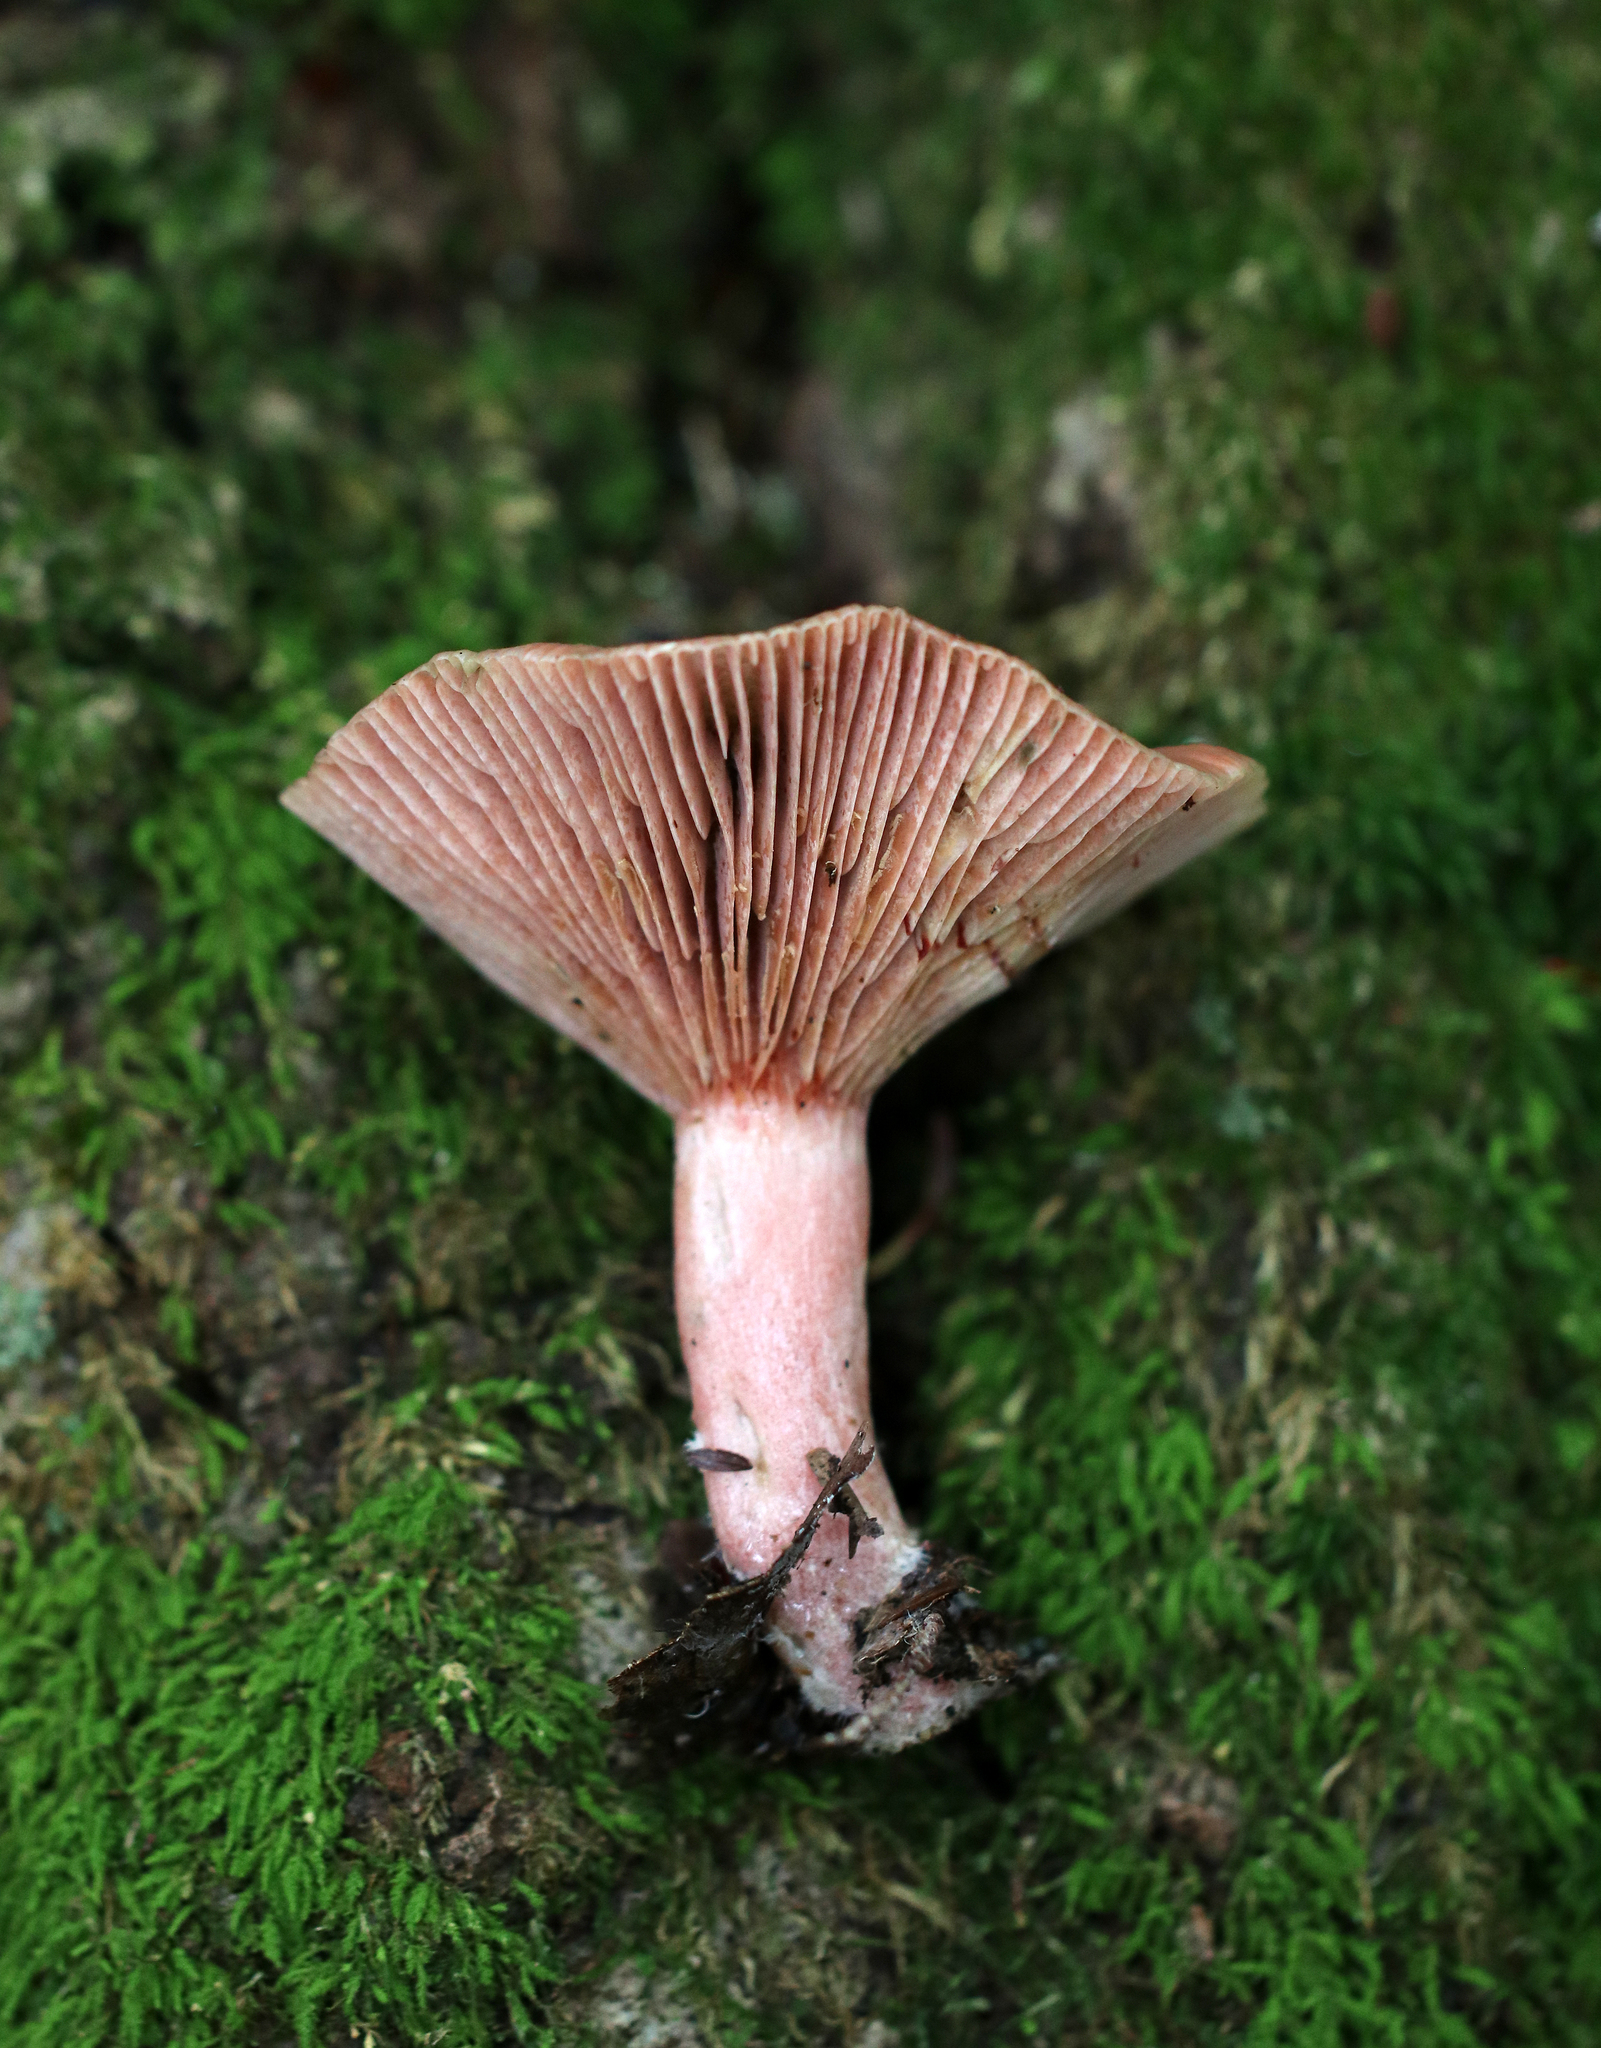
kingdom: Fungi
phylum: Basidiomycota
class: Agaricomycetes
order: Russulales
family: Russulaceae
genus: Lactarius
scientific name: Lactarius subpurpureus
